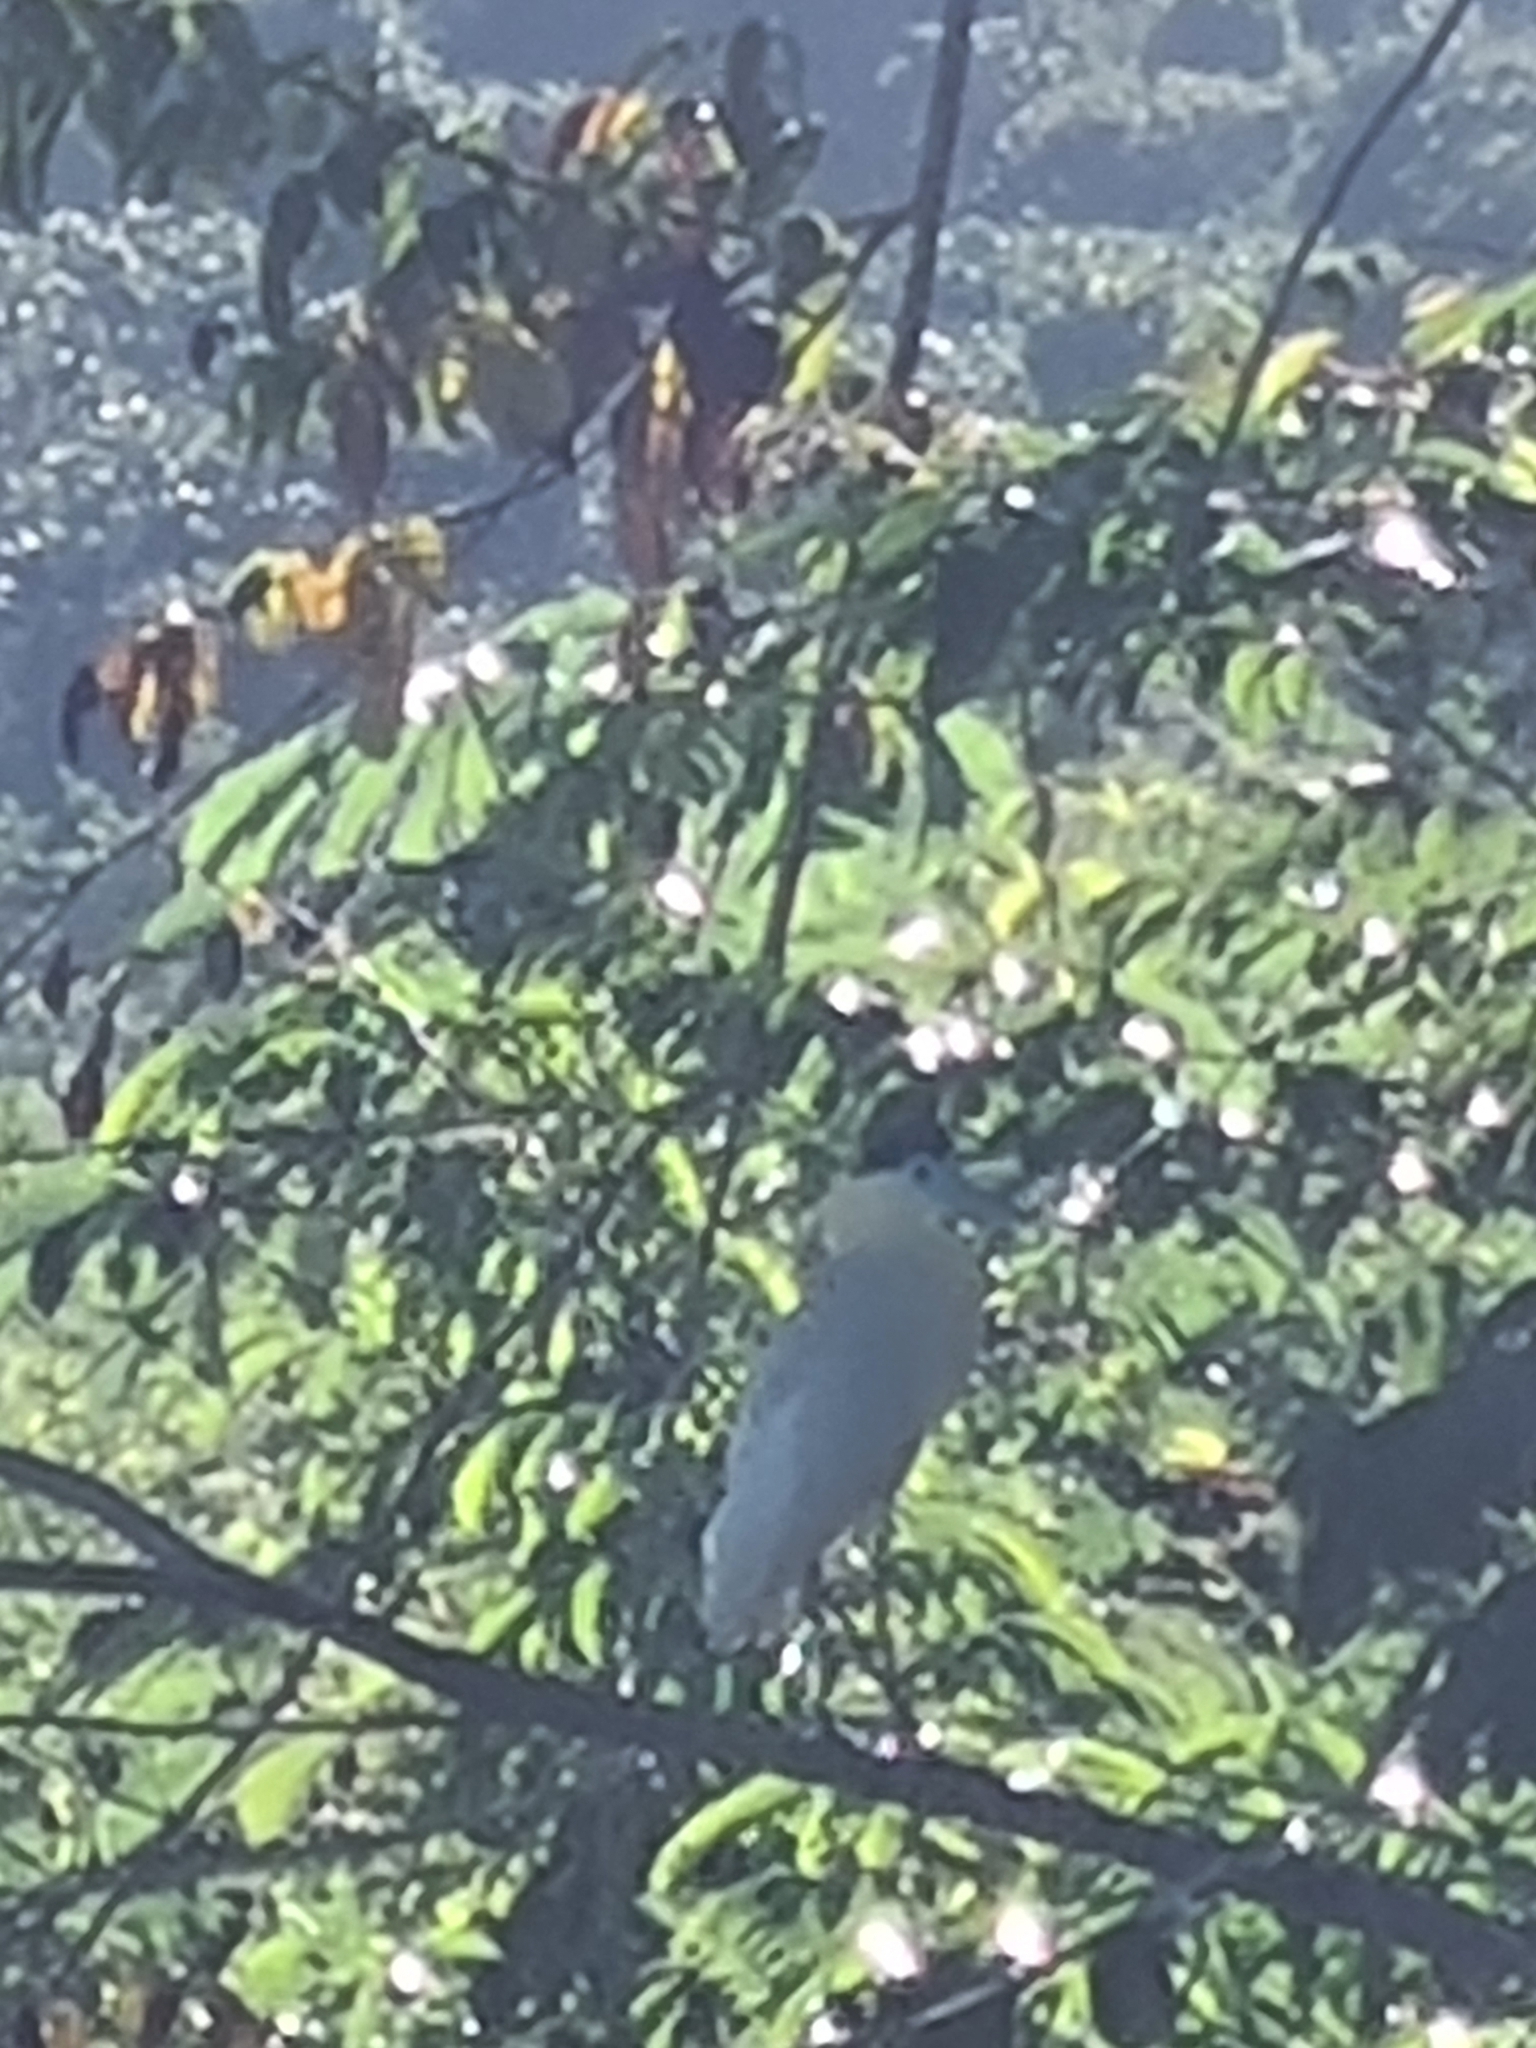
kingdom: Animalia
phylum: Chordata
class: Aves
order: Pelecaniformes
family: Ardeidae
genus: Pilherodius
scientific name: Pilherodius pileatus
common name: Capped heron
